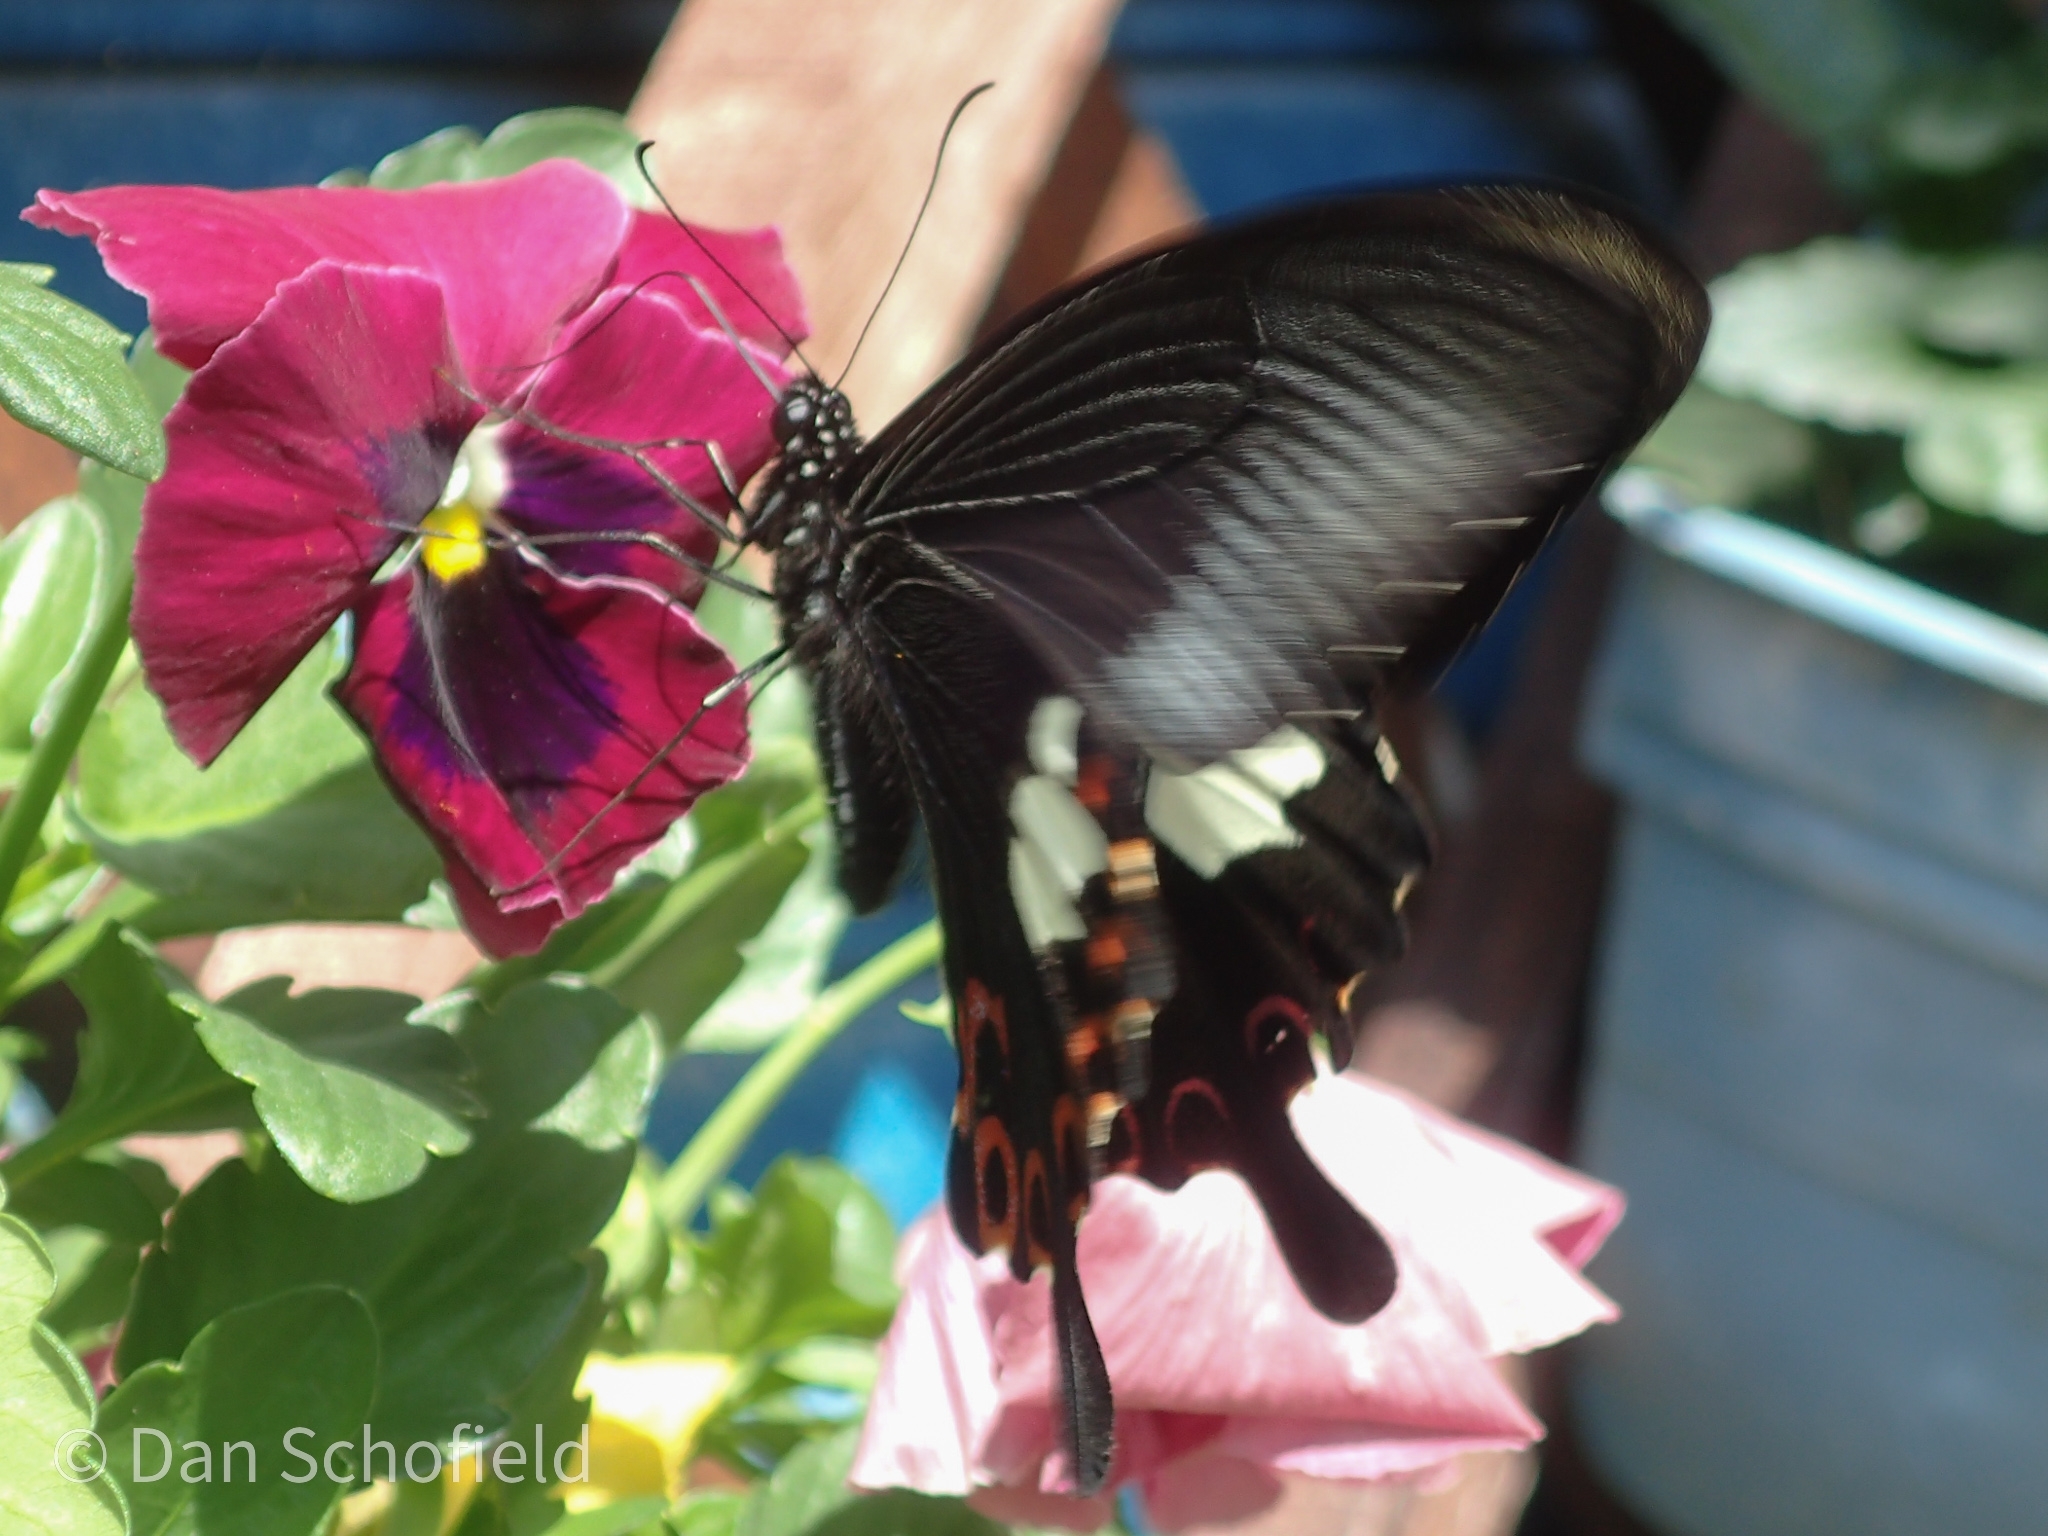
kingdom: Animalia
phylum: Arthropoda
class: Insecta
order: Lepidoptera
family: Papilionidae
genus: Papilio
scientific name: Papilio helenus
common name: Red helen
